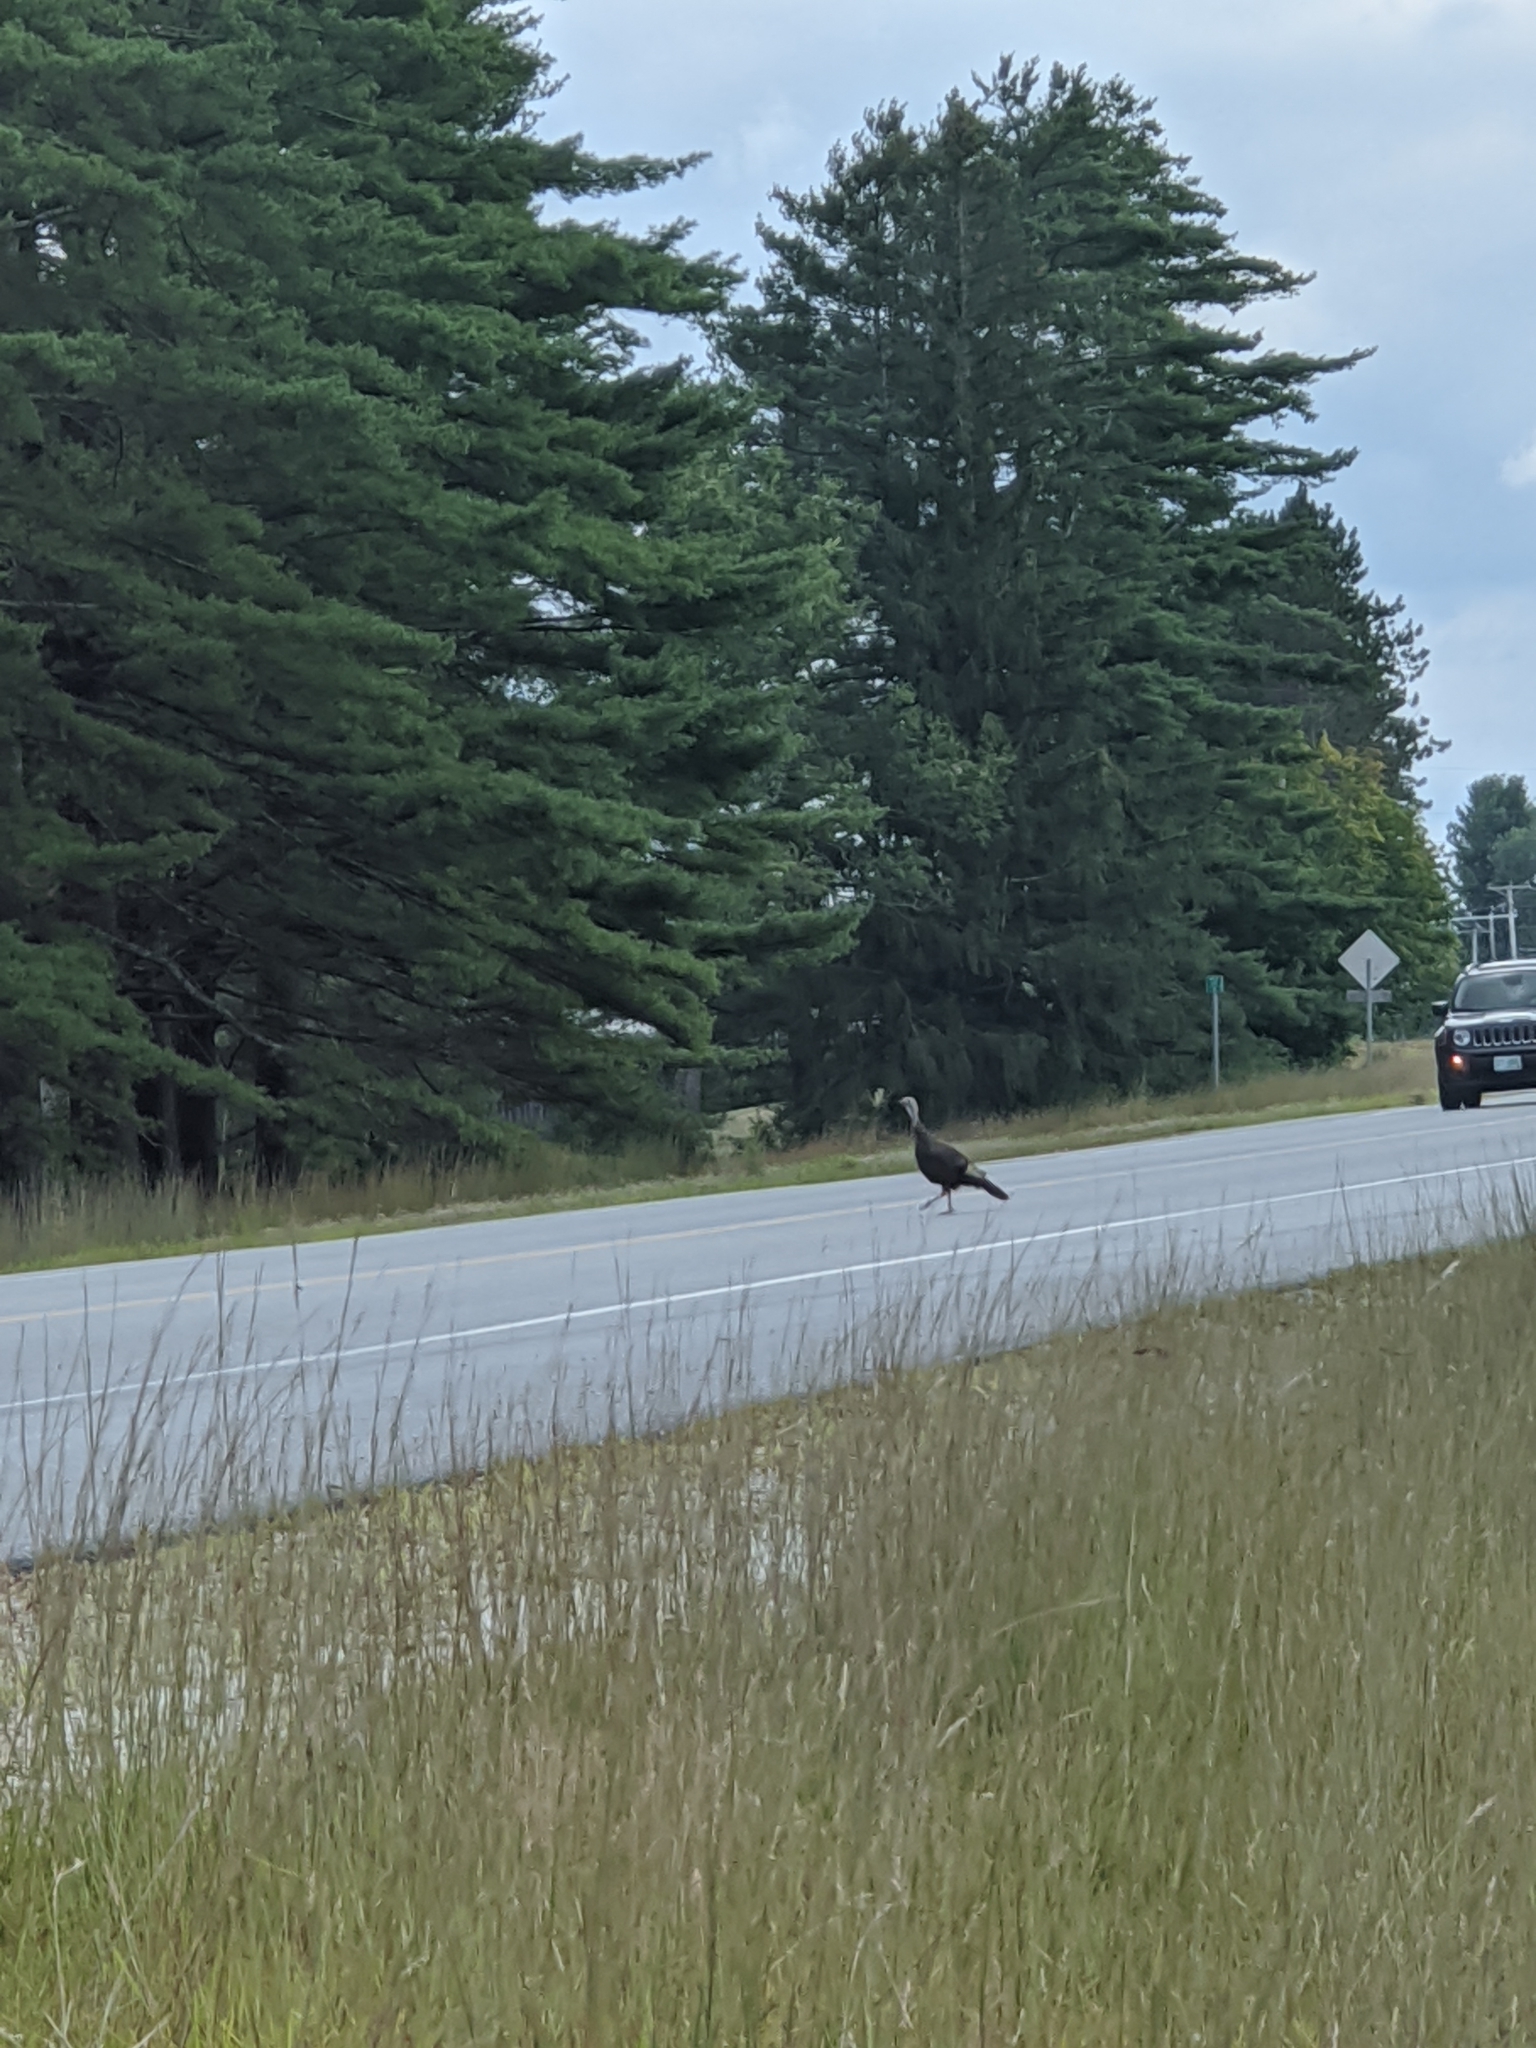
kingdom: Animalia
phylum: Chordata
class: Aves
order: Galliformes
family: Phasianidae
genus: Meleagris
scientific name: Meleagris gallopavo
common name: Wild turkey
